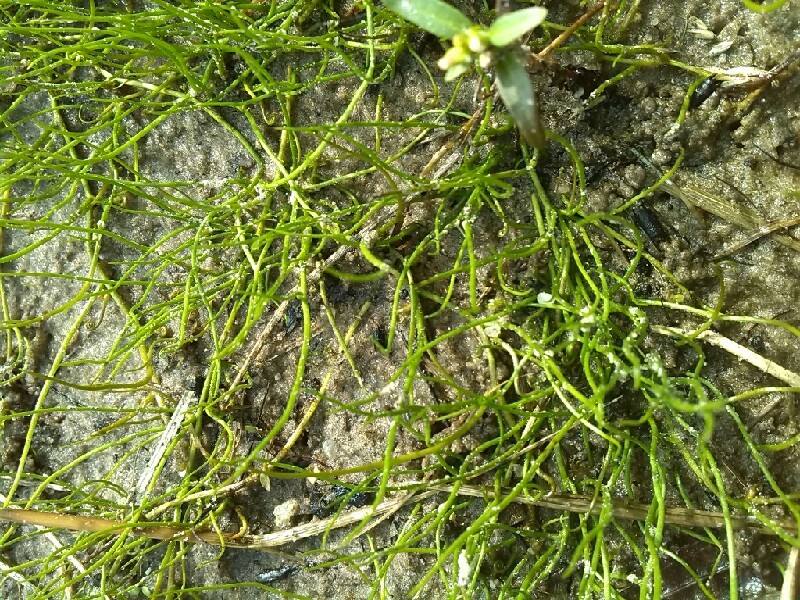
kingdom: Plantae
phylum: Tracheophyta
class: Polypodiopsida
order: Salviniales
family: Marsileaceae
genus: Pilularia
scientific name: Pilularia globulifera
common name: Pillwort
